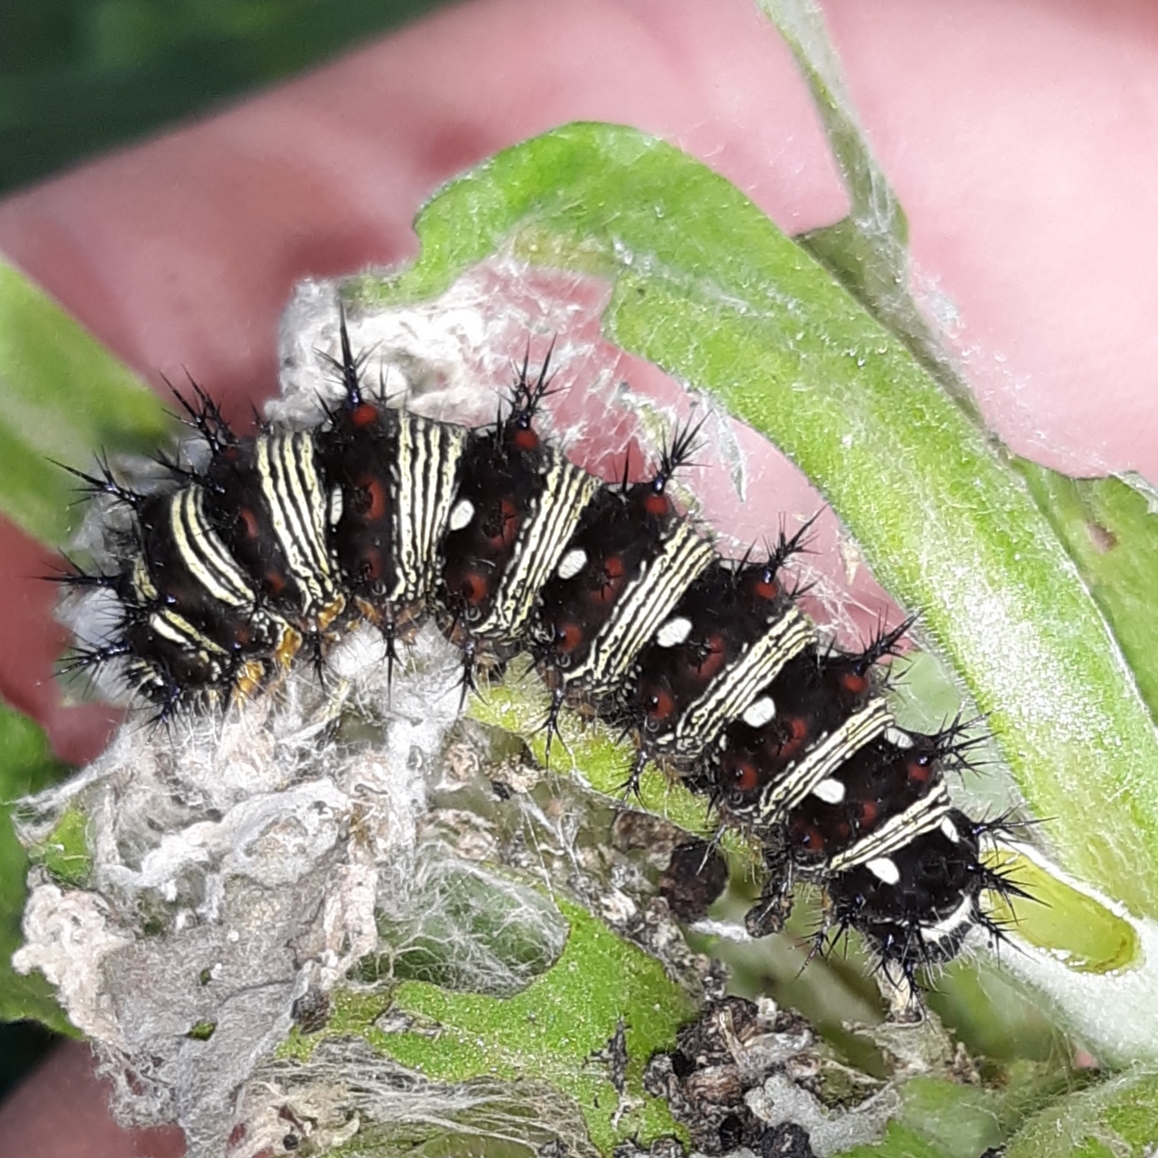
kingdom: Animalia
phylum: Arthropoda
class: Insecta
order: Lepidoptera
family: Nymphalidae
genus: Vanessa
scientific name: Vanessa virginiensis
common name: American lady
